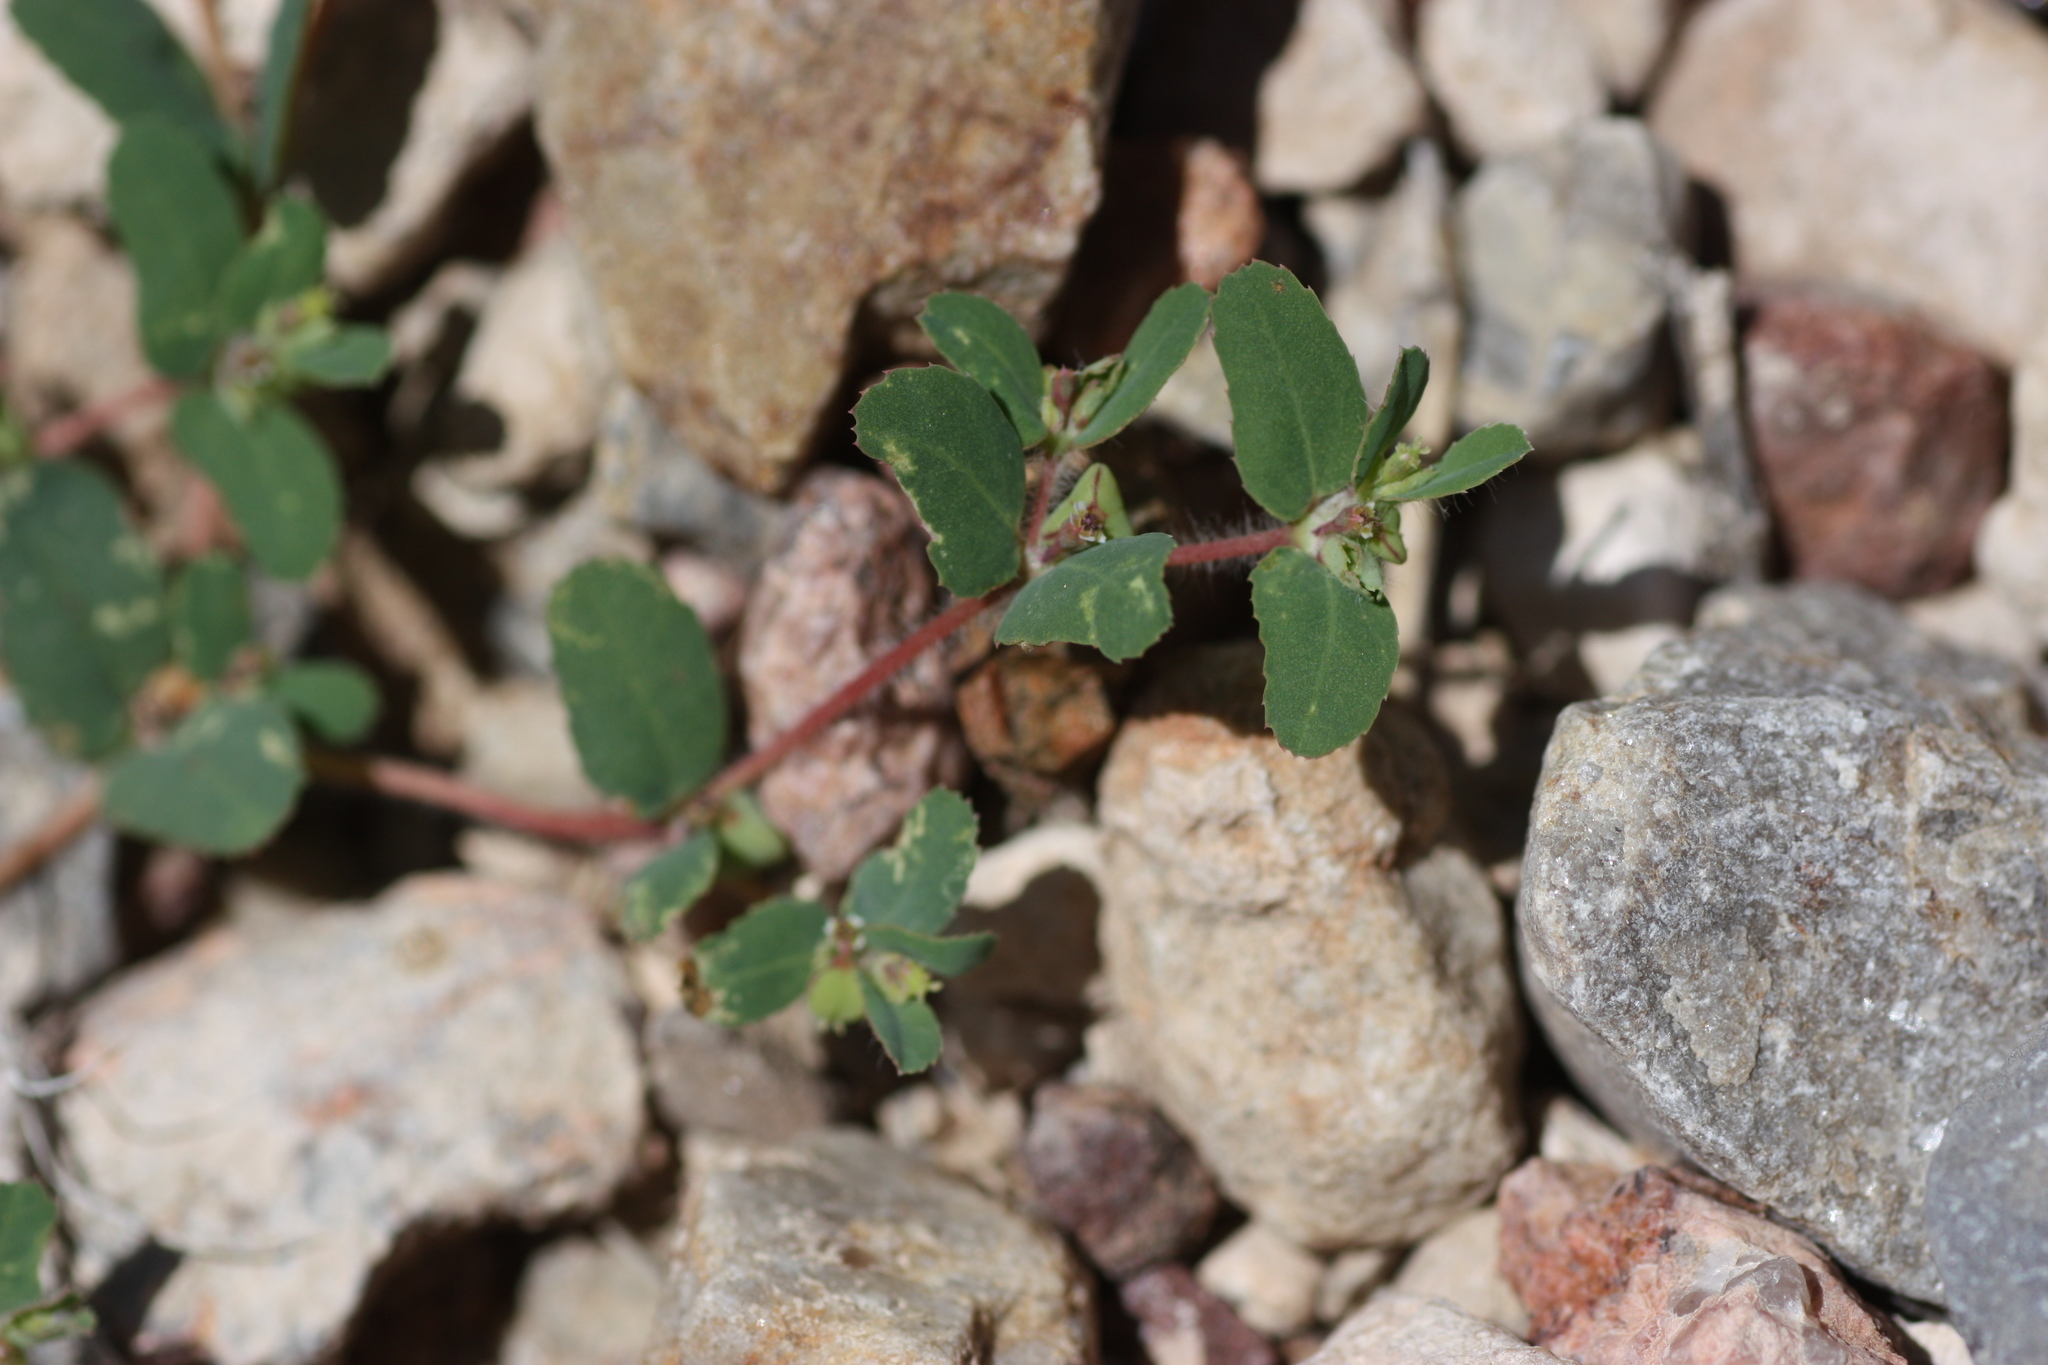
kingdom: Plantae
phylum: Tracheophyta
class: Magnoliopsida
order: Malpighiales
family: Euphorbiaceae
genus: Euphorbia
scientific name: Euphorbia serrula
